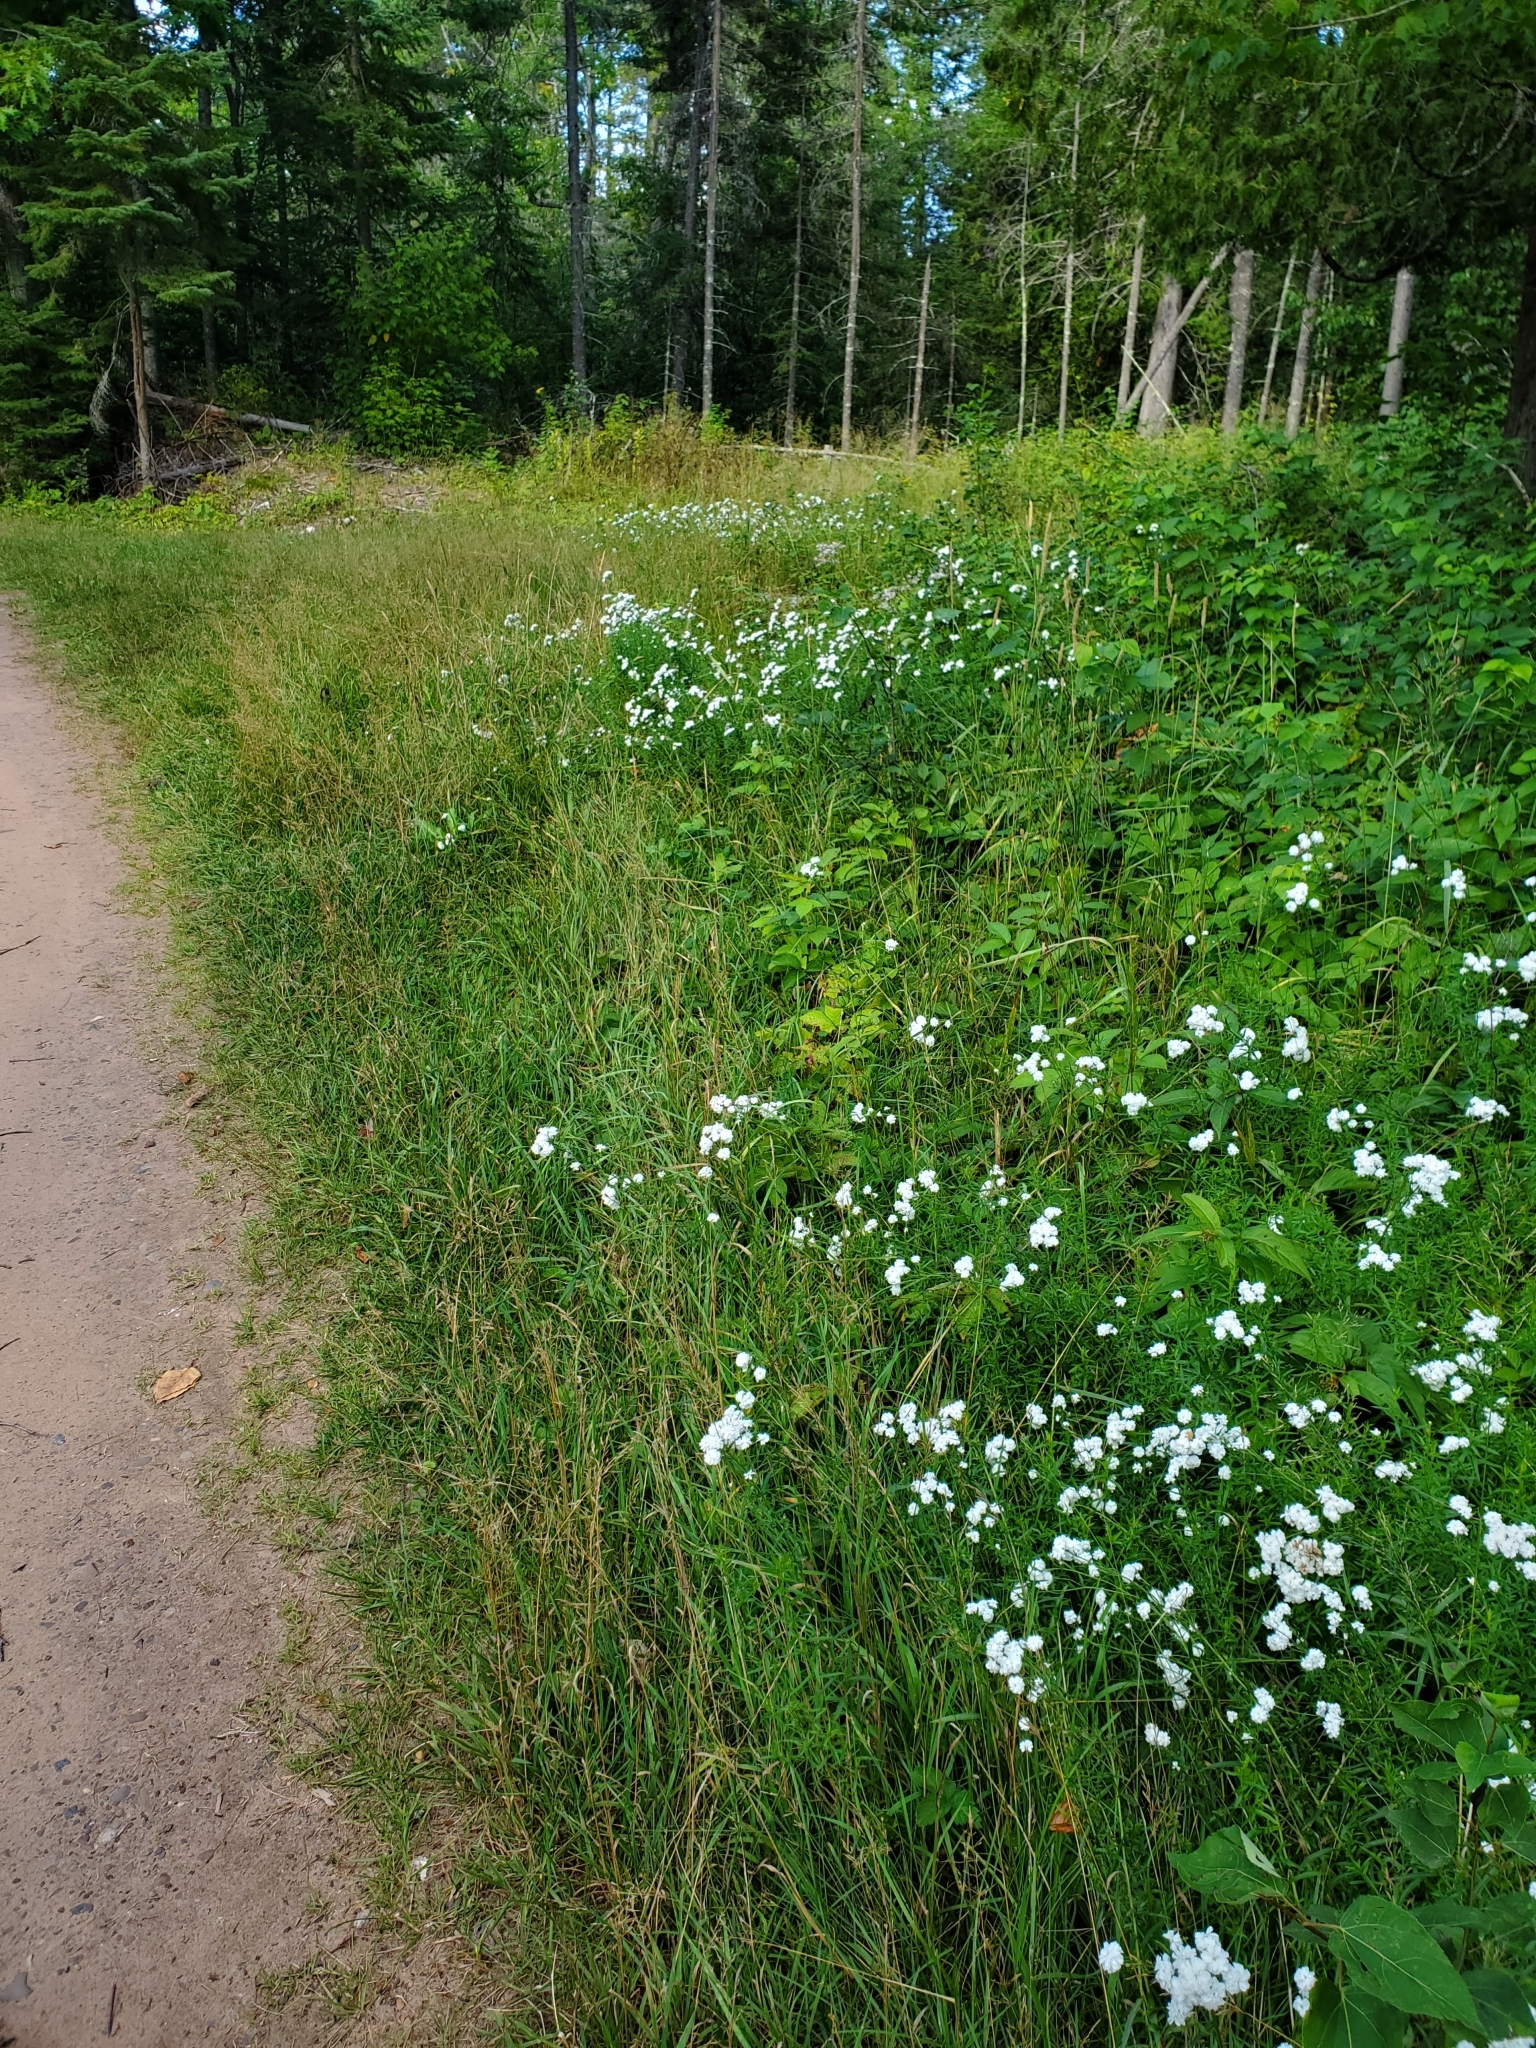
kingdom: Plantae
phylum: Tracheophyta
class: Magnoliopsida
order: Asterales
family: Asteraceae
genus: Achillea
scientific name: Achillea ptarmica
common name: Sneezeweed
